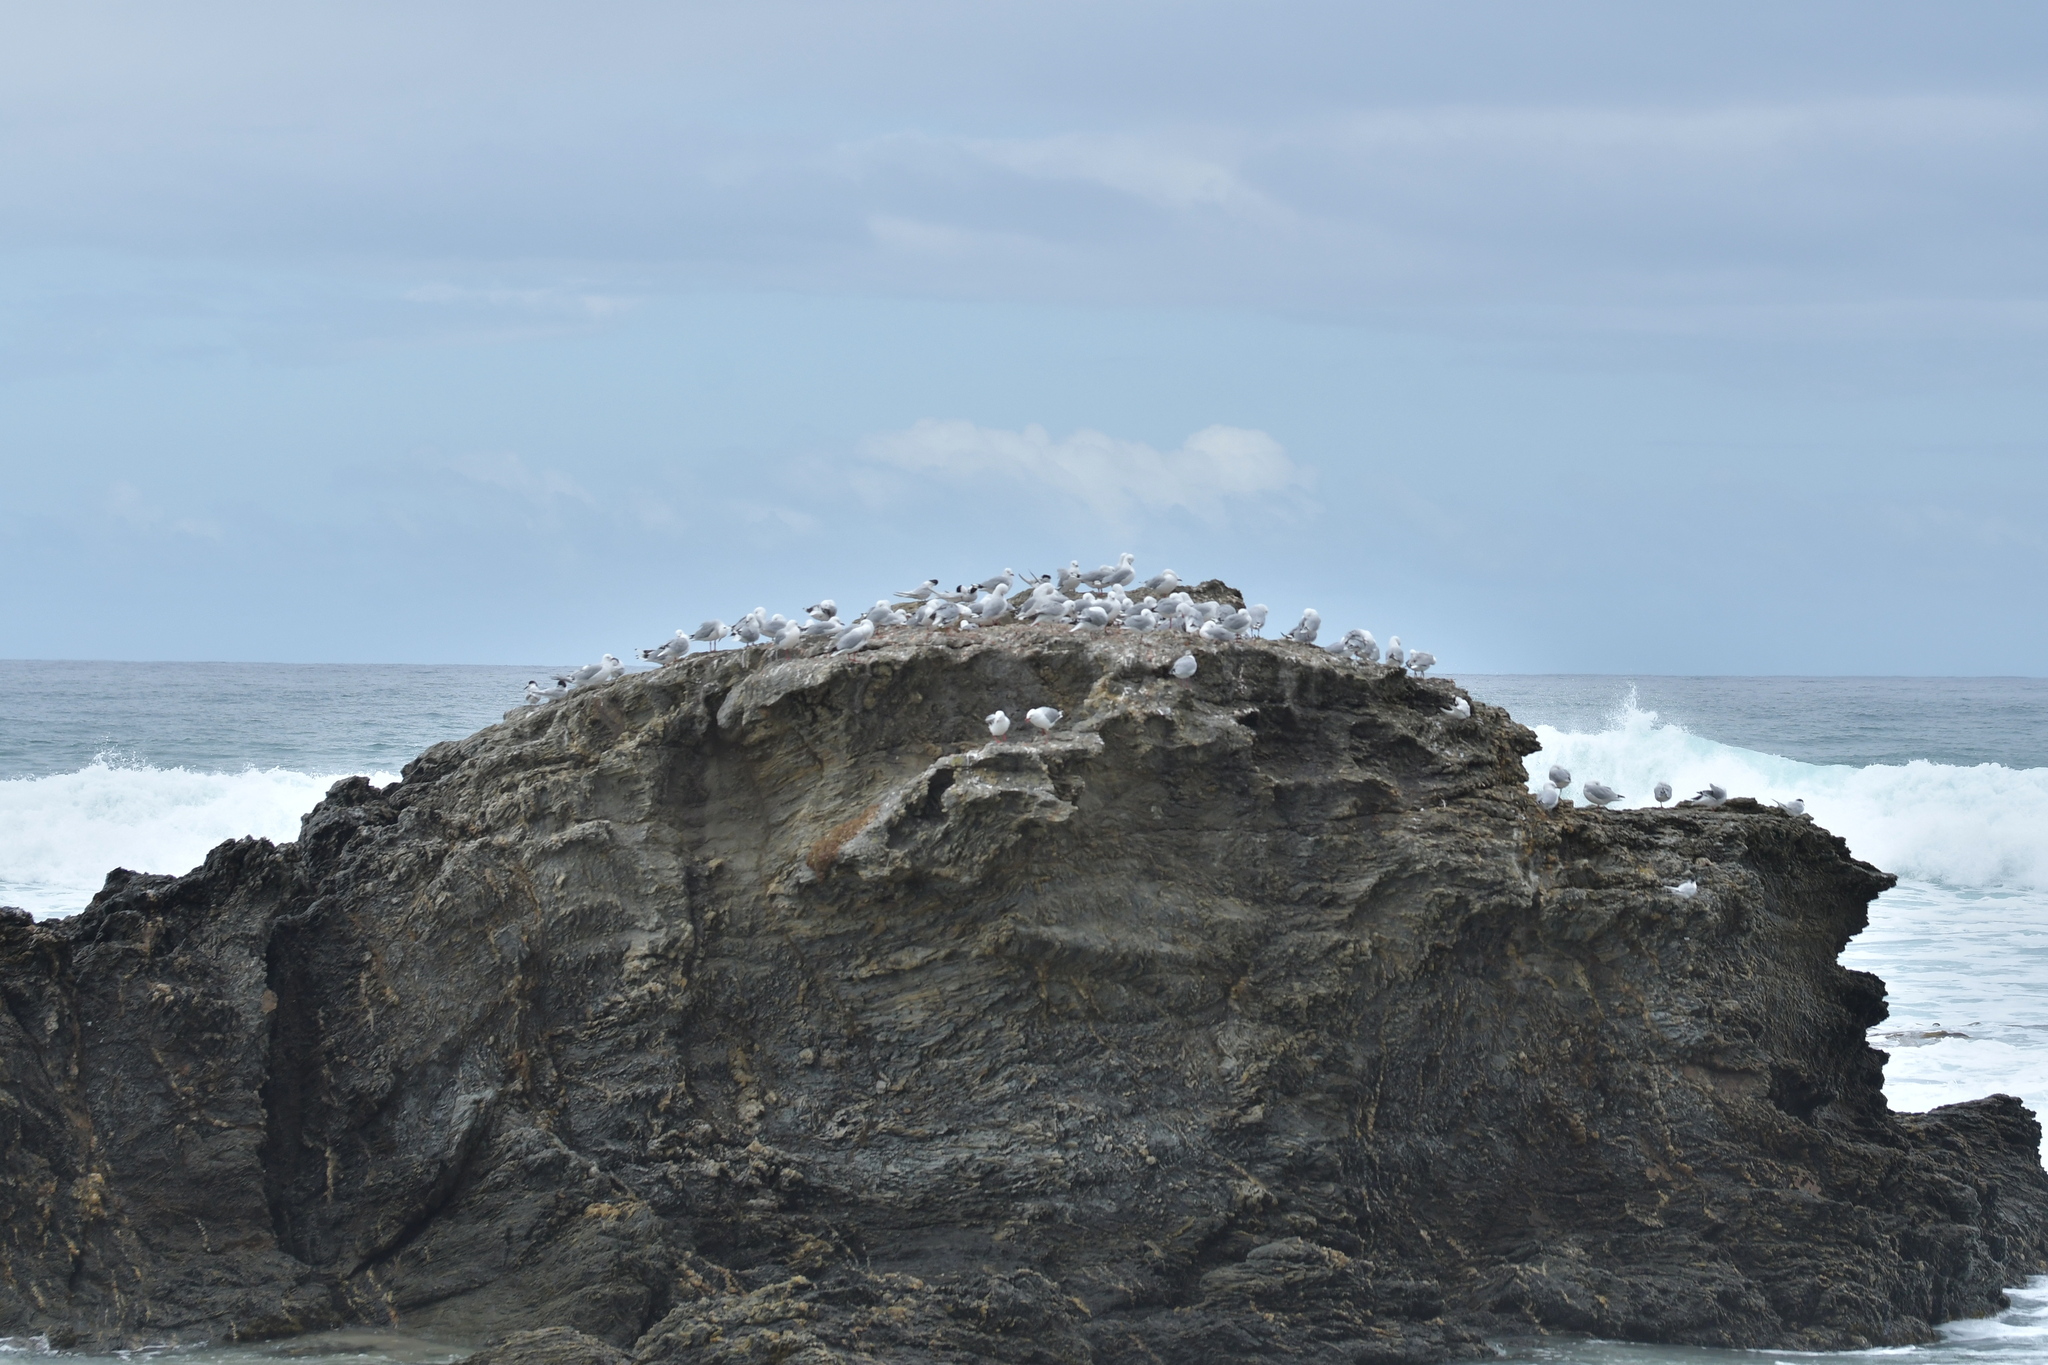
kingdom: Animalia
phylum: Chordata
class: Aves
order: Charadriiformes
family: Laridae
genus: Sterna
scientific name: Sterna striata
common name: White-fronted tern
